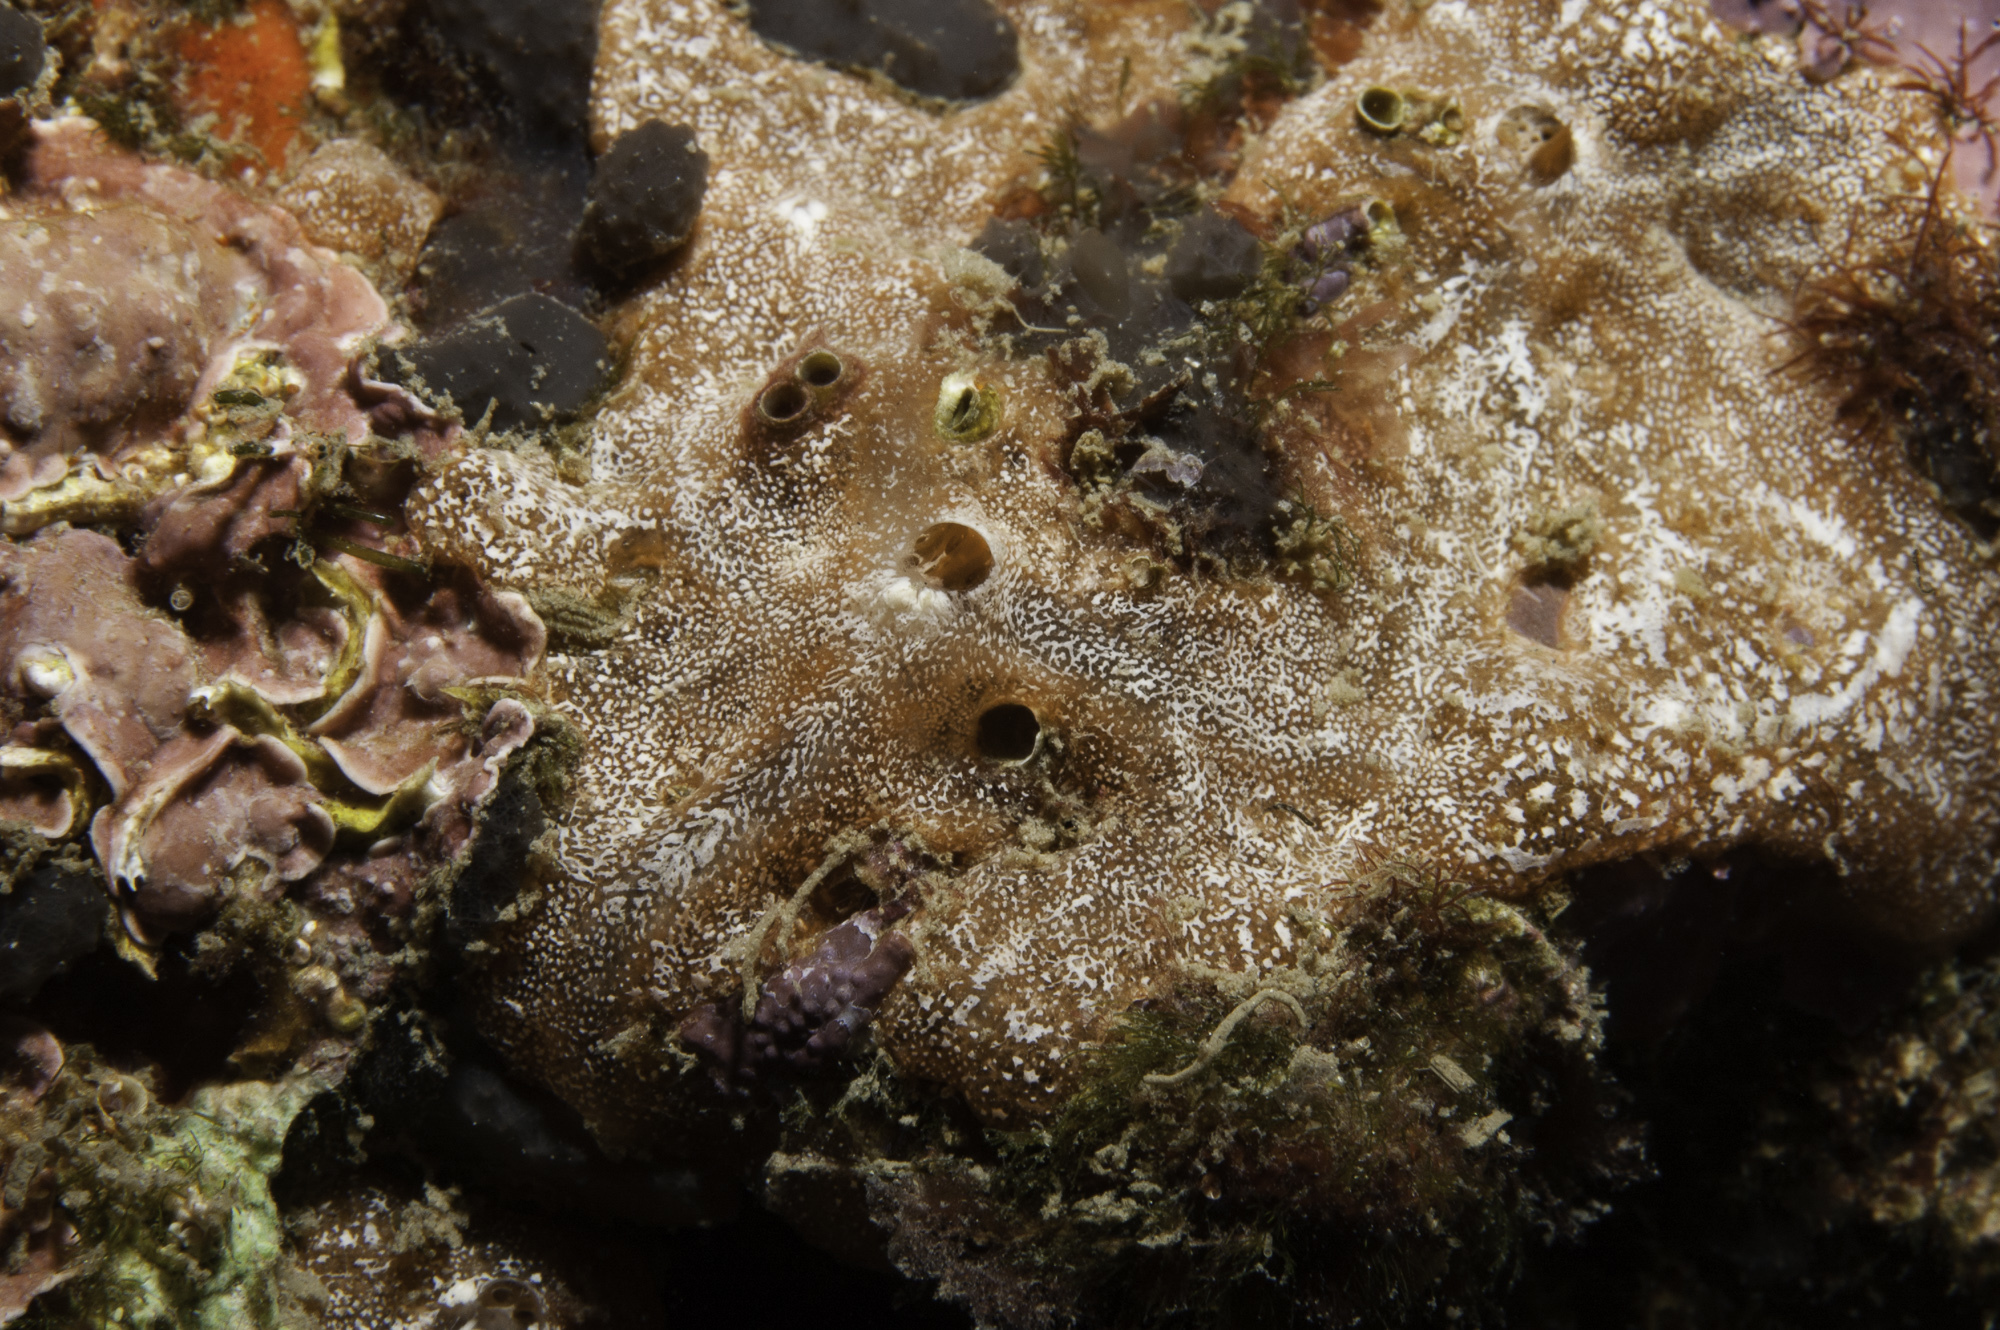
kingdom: Animalia
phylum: Porifera
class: Demospongiae
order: Poecilosclerida
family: Microcionidae
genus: Clathria
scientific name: Clathria jolicoeuri
